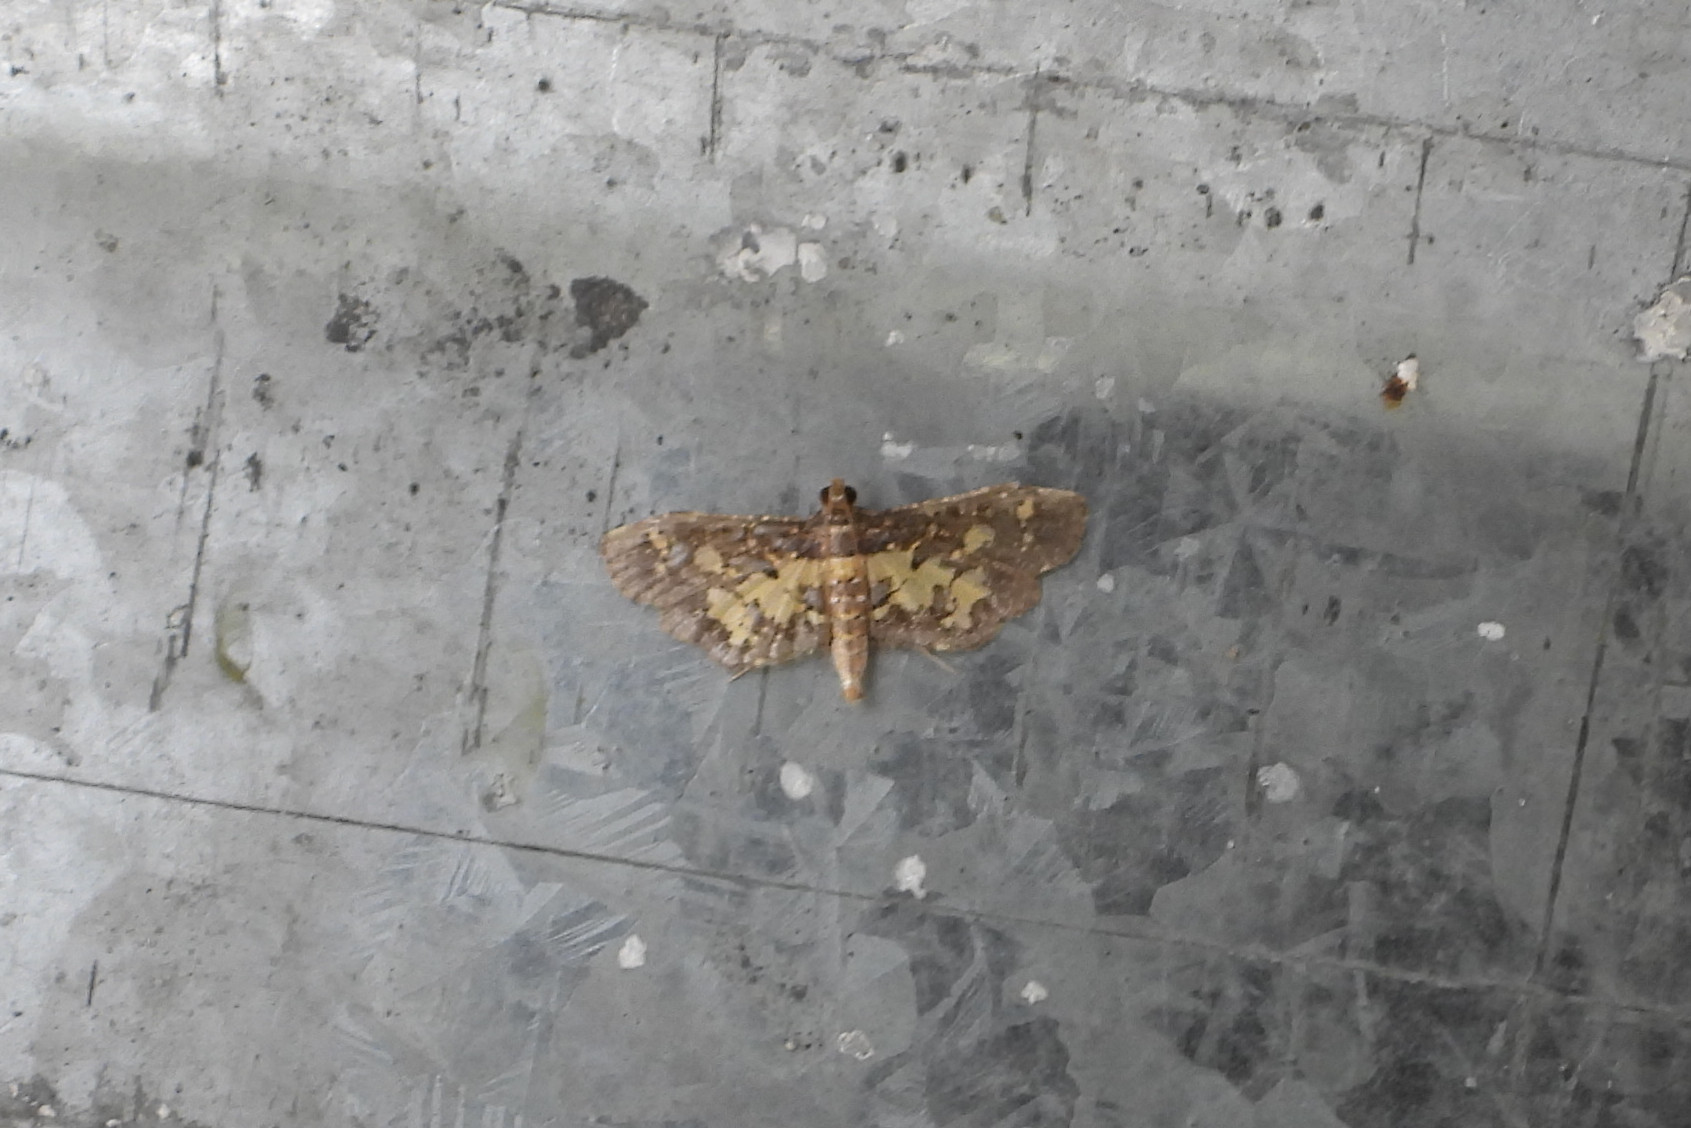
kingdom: Animalia
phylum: Arthropoda
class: Insecta
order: Lepidoptera
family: Crambidae
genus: Eurrhyparodes
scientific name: Eurrhyparodes bracteolalis
